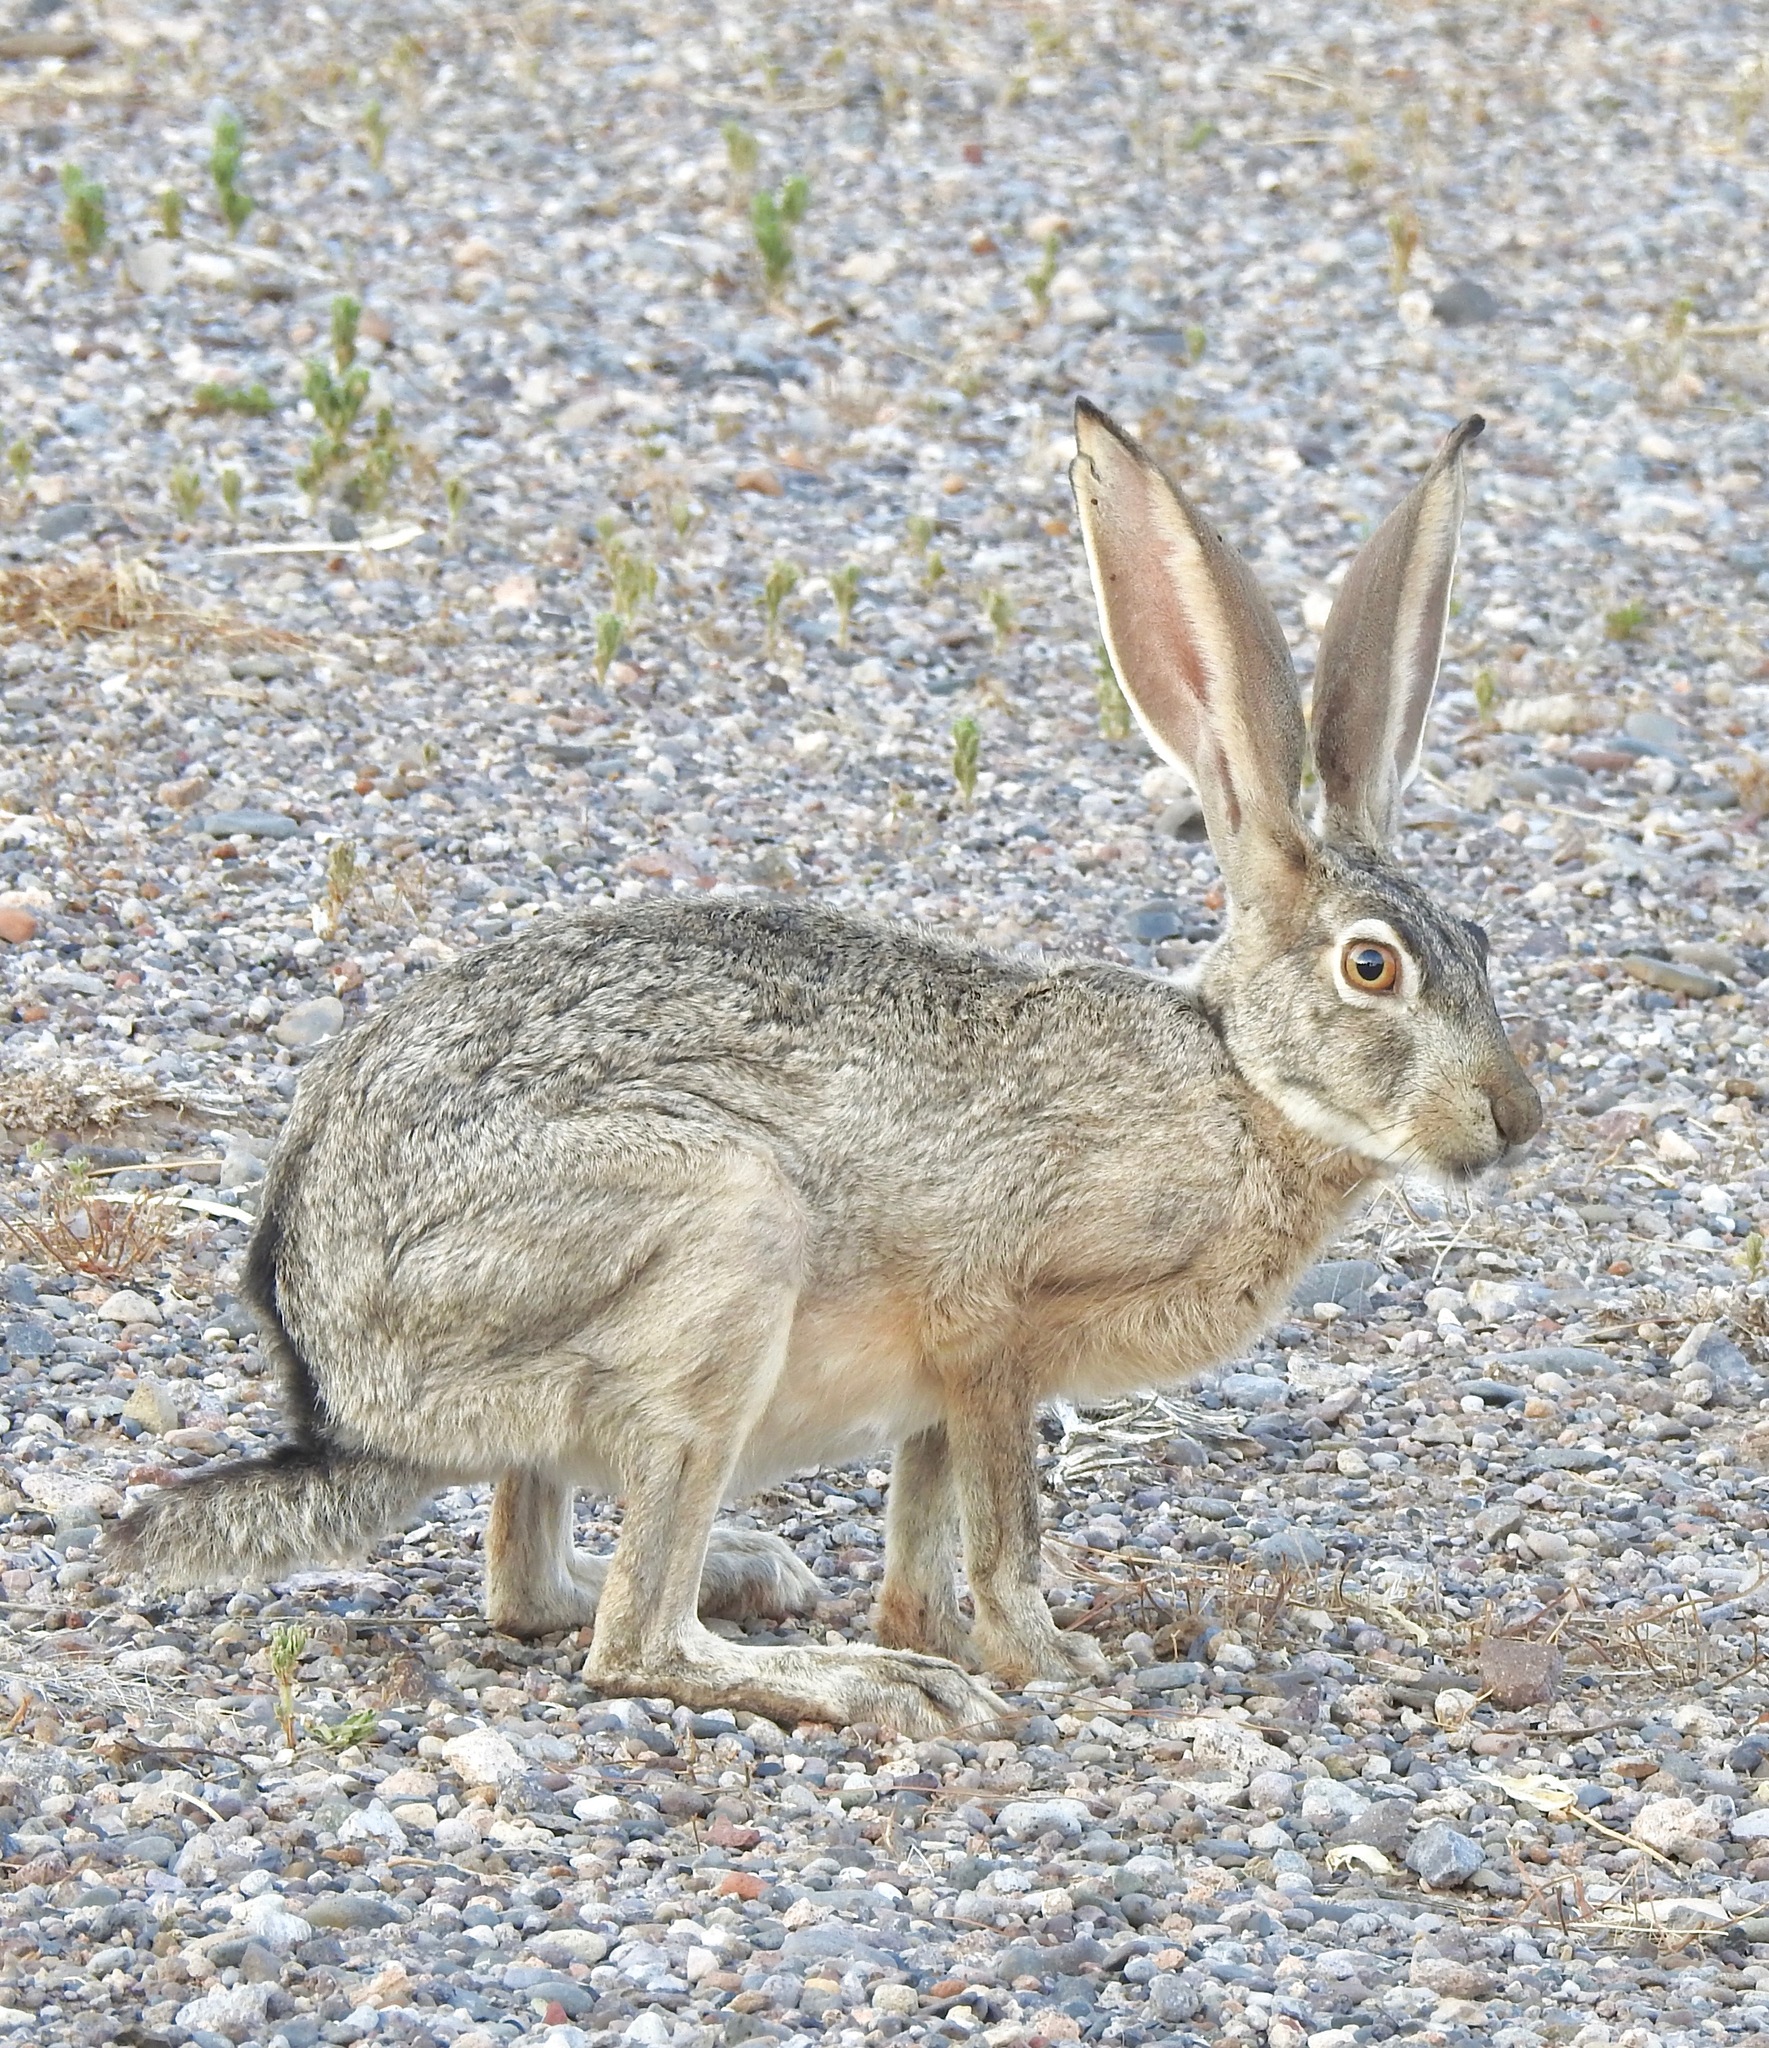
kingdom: Animalia
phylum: Chordata
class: Mammalia
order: Lagomorpha
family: Leporidae
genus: Lepus
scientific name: Lepus californicus
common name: Black-tailed jackrabbit
